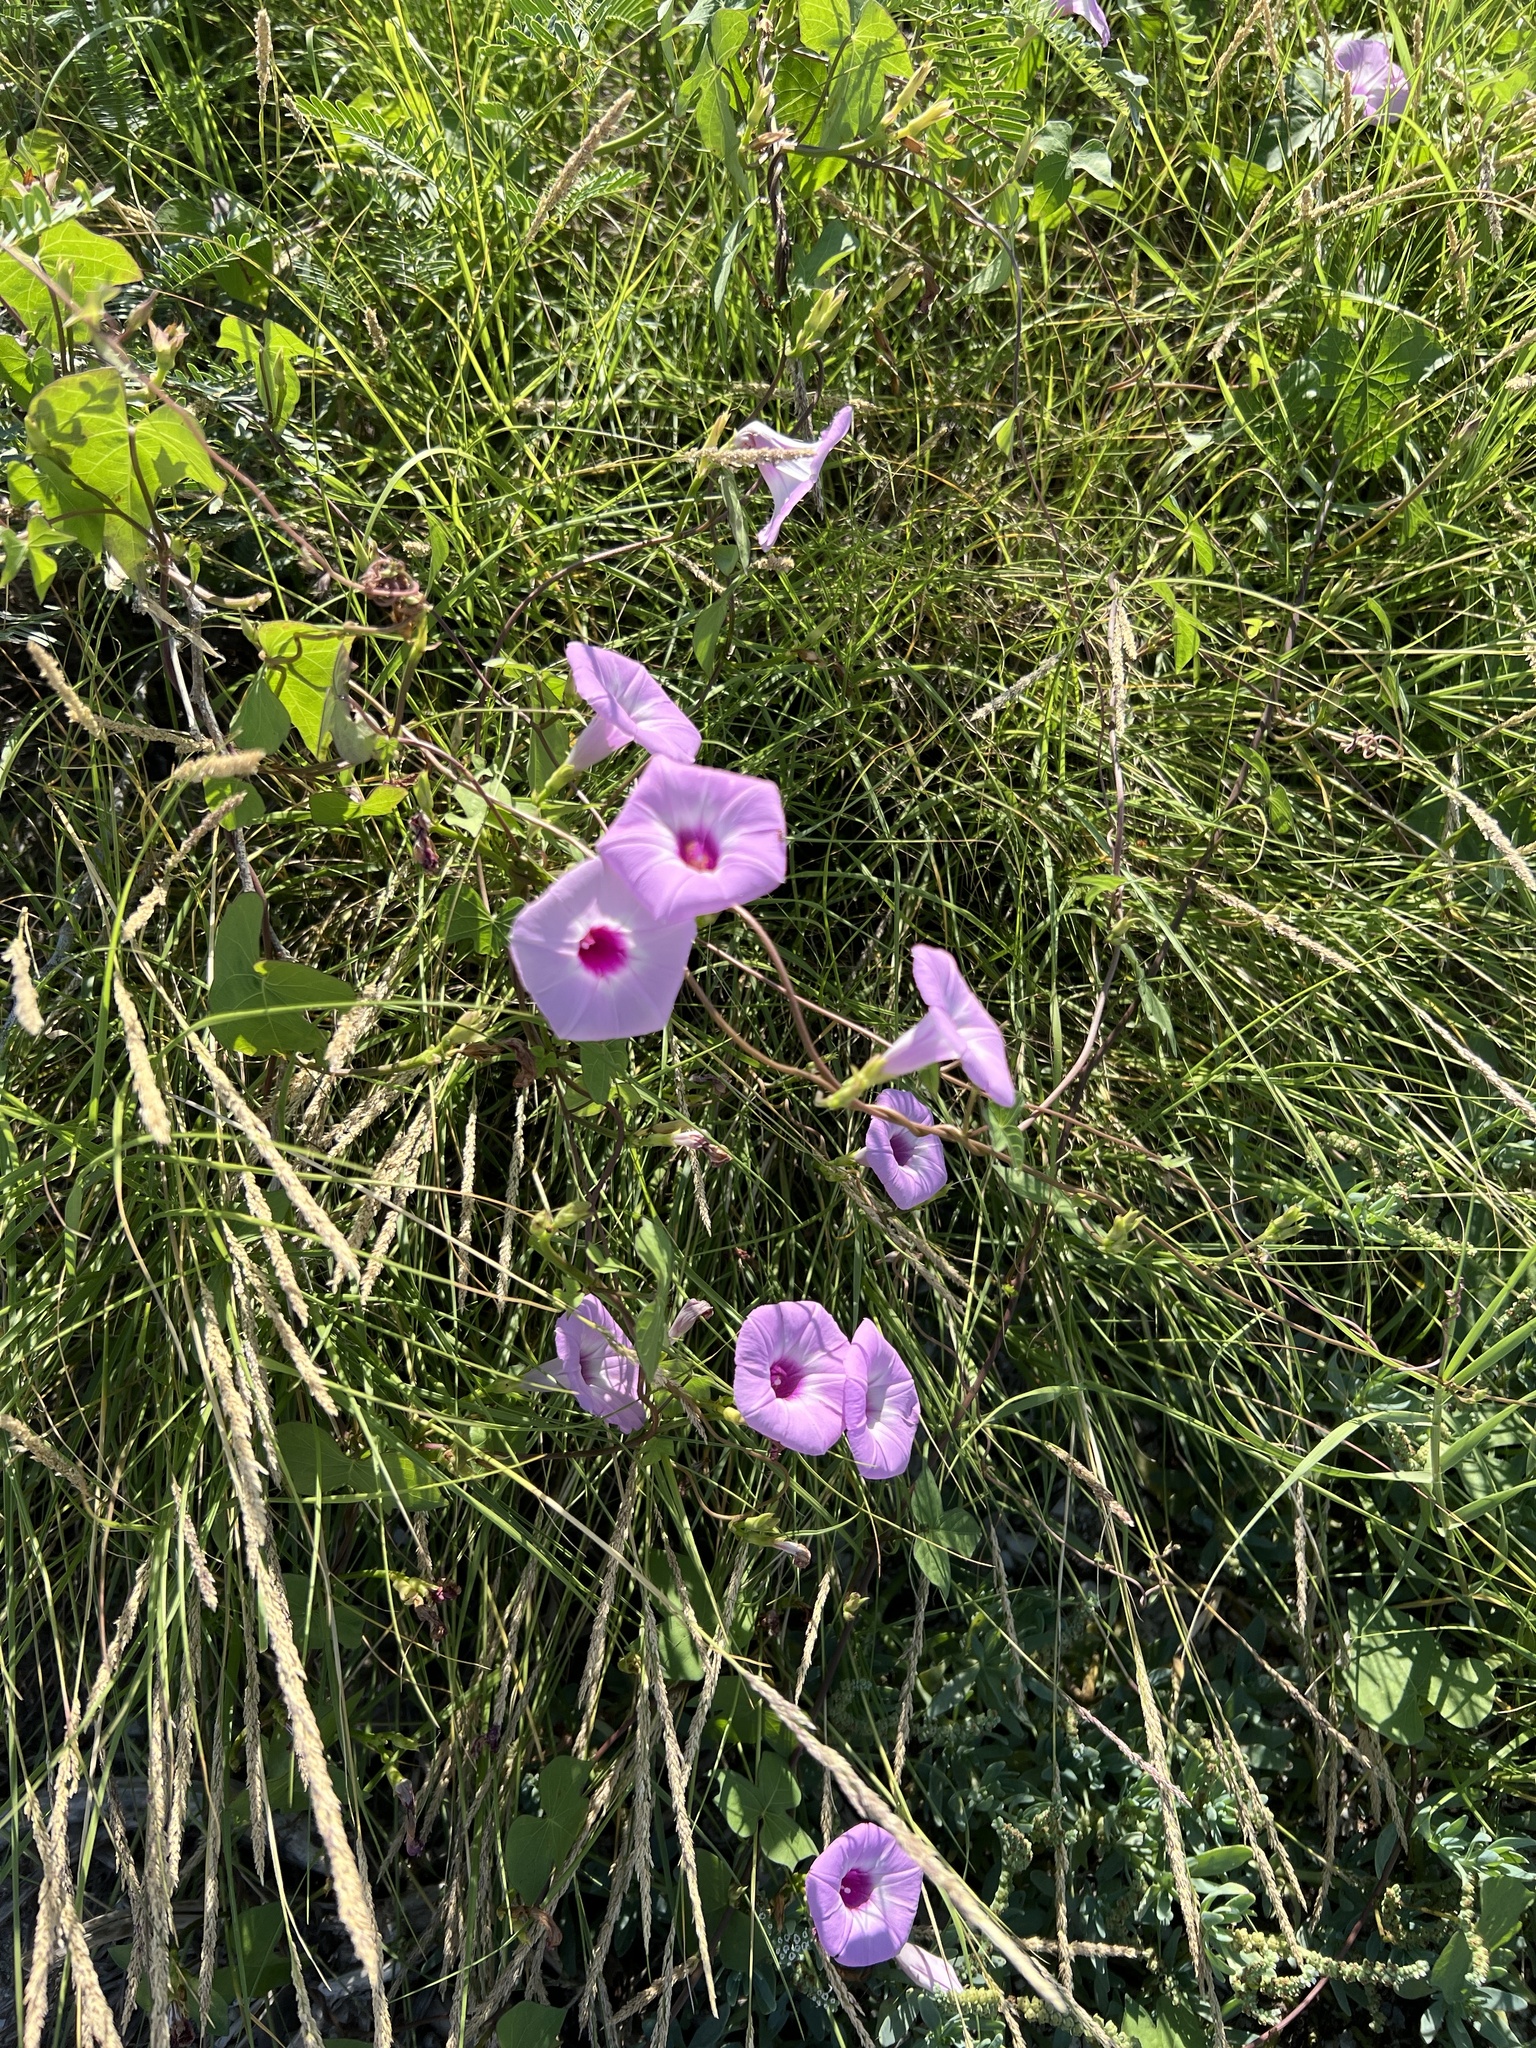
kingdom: Plantae
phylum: Tracheophyta
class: Magnoliopsida
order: Solanales
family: Convolvulaceae
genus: Ipomoea
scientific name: Ipomoea cordatotriloba
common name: Cotton morning glory
